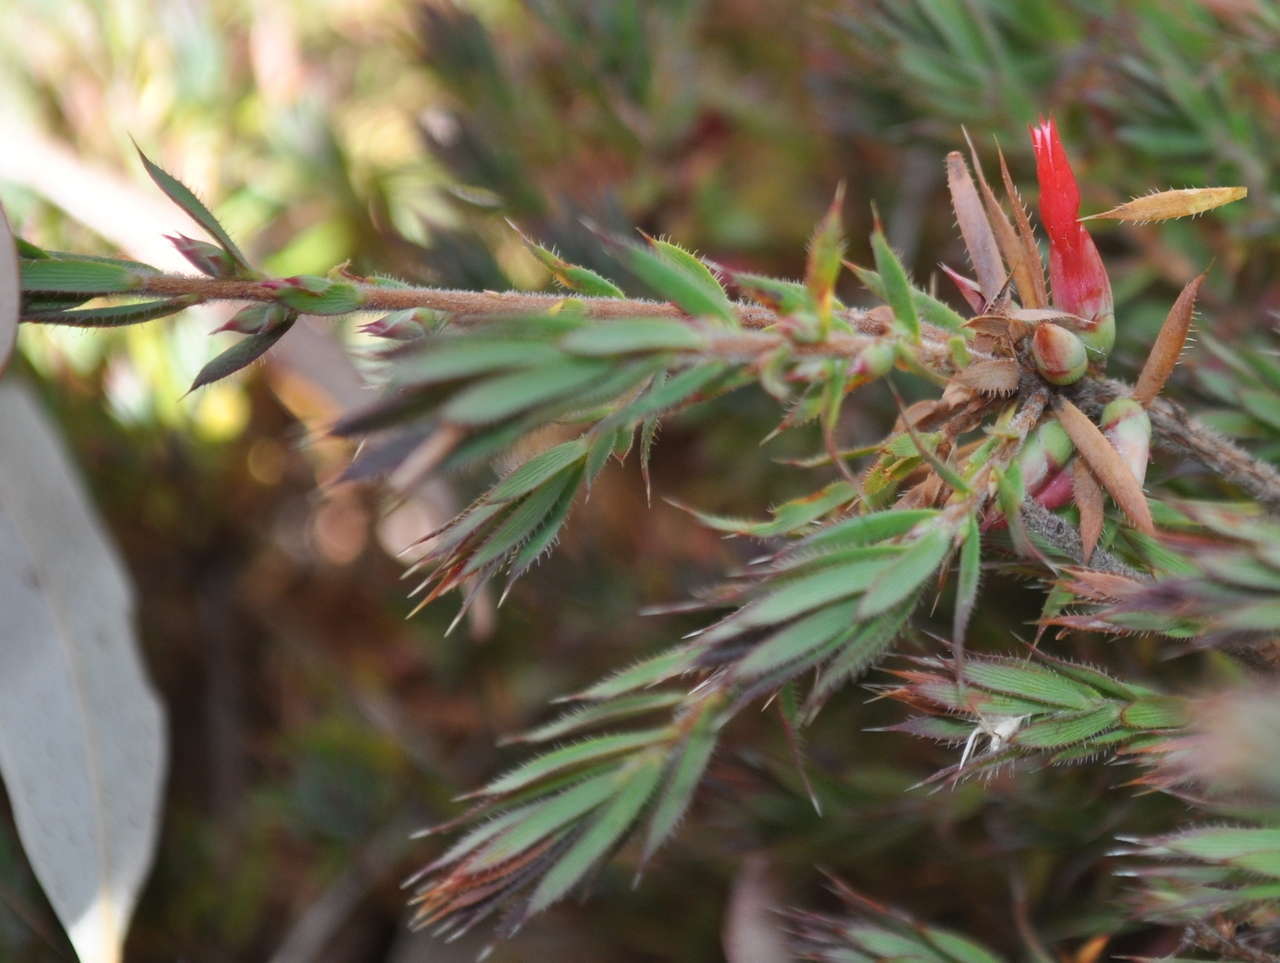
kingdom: Plantae
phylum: Tracheophyta
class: Magnoliopsida
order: Ericales
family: Ericaceae
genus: Styphelia
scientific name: Styphelia humifusa
